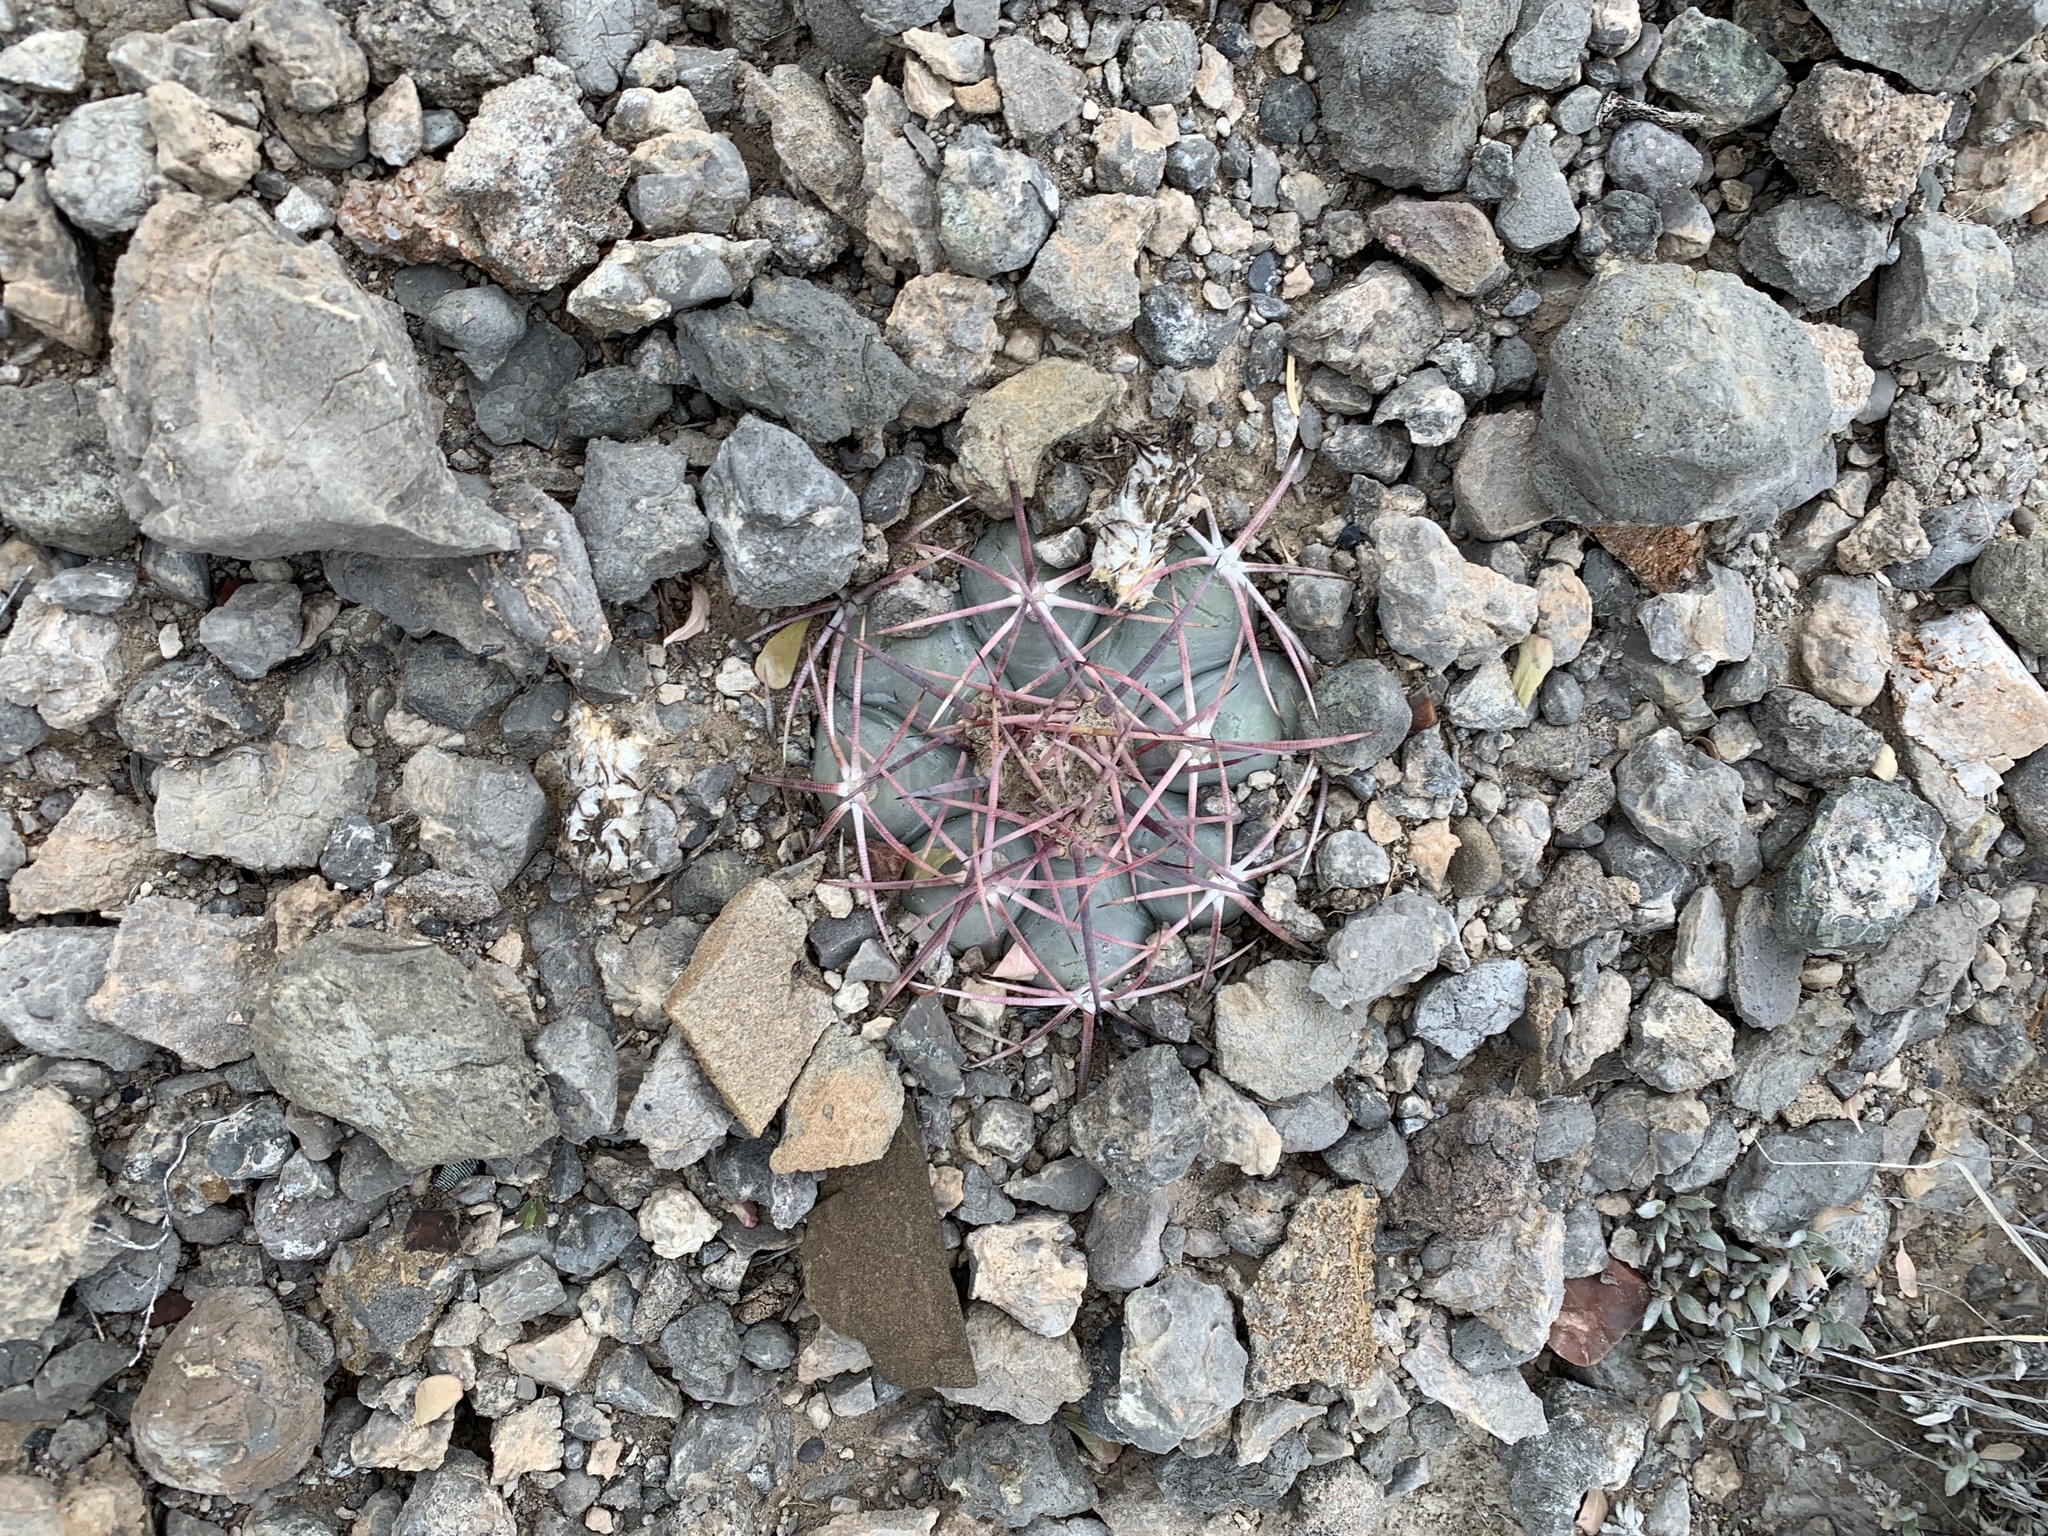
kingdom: Plantae
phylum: Tracheophyta
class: Magnoliopsida
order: Caryophyllales
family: Cactaceae
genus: Echinocactus
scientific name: Echinocactus horizonthalonius
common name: Devilshead
